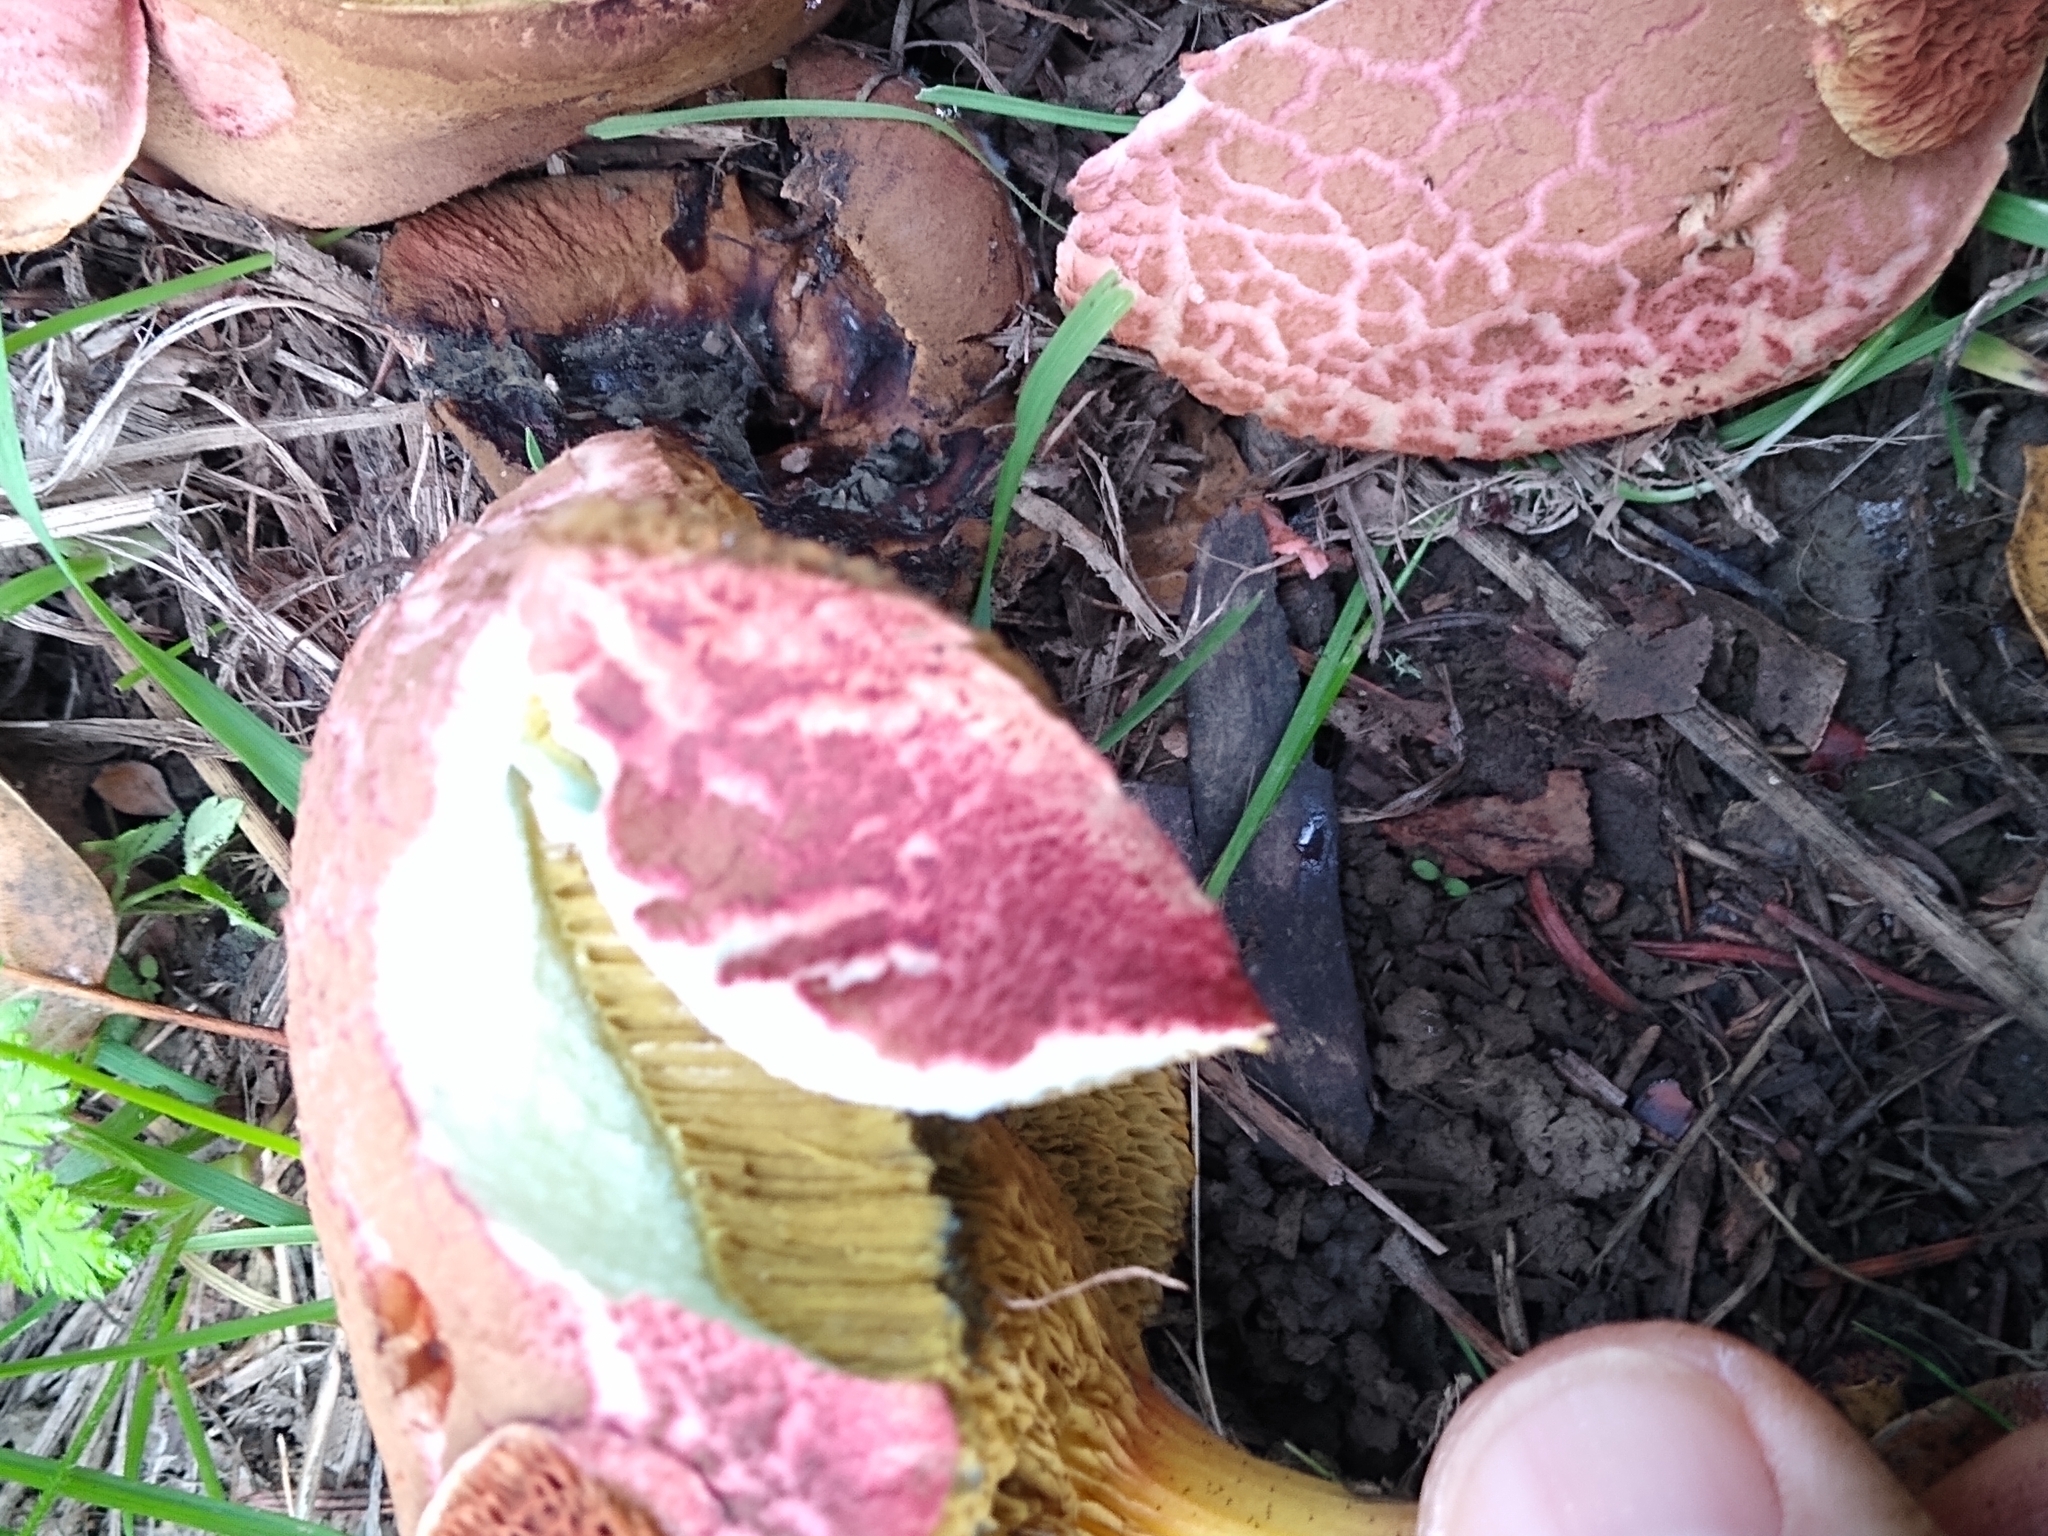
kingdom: Fungi
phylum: Basidiomycota
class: Agaricomycetes
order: Boletales
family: Boletaceae
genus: Xerocomellus
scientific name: Xerocomellus dryophilus
